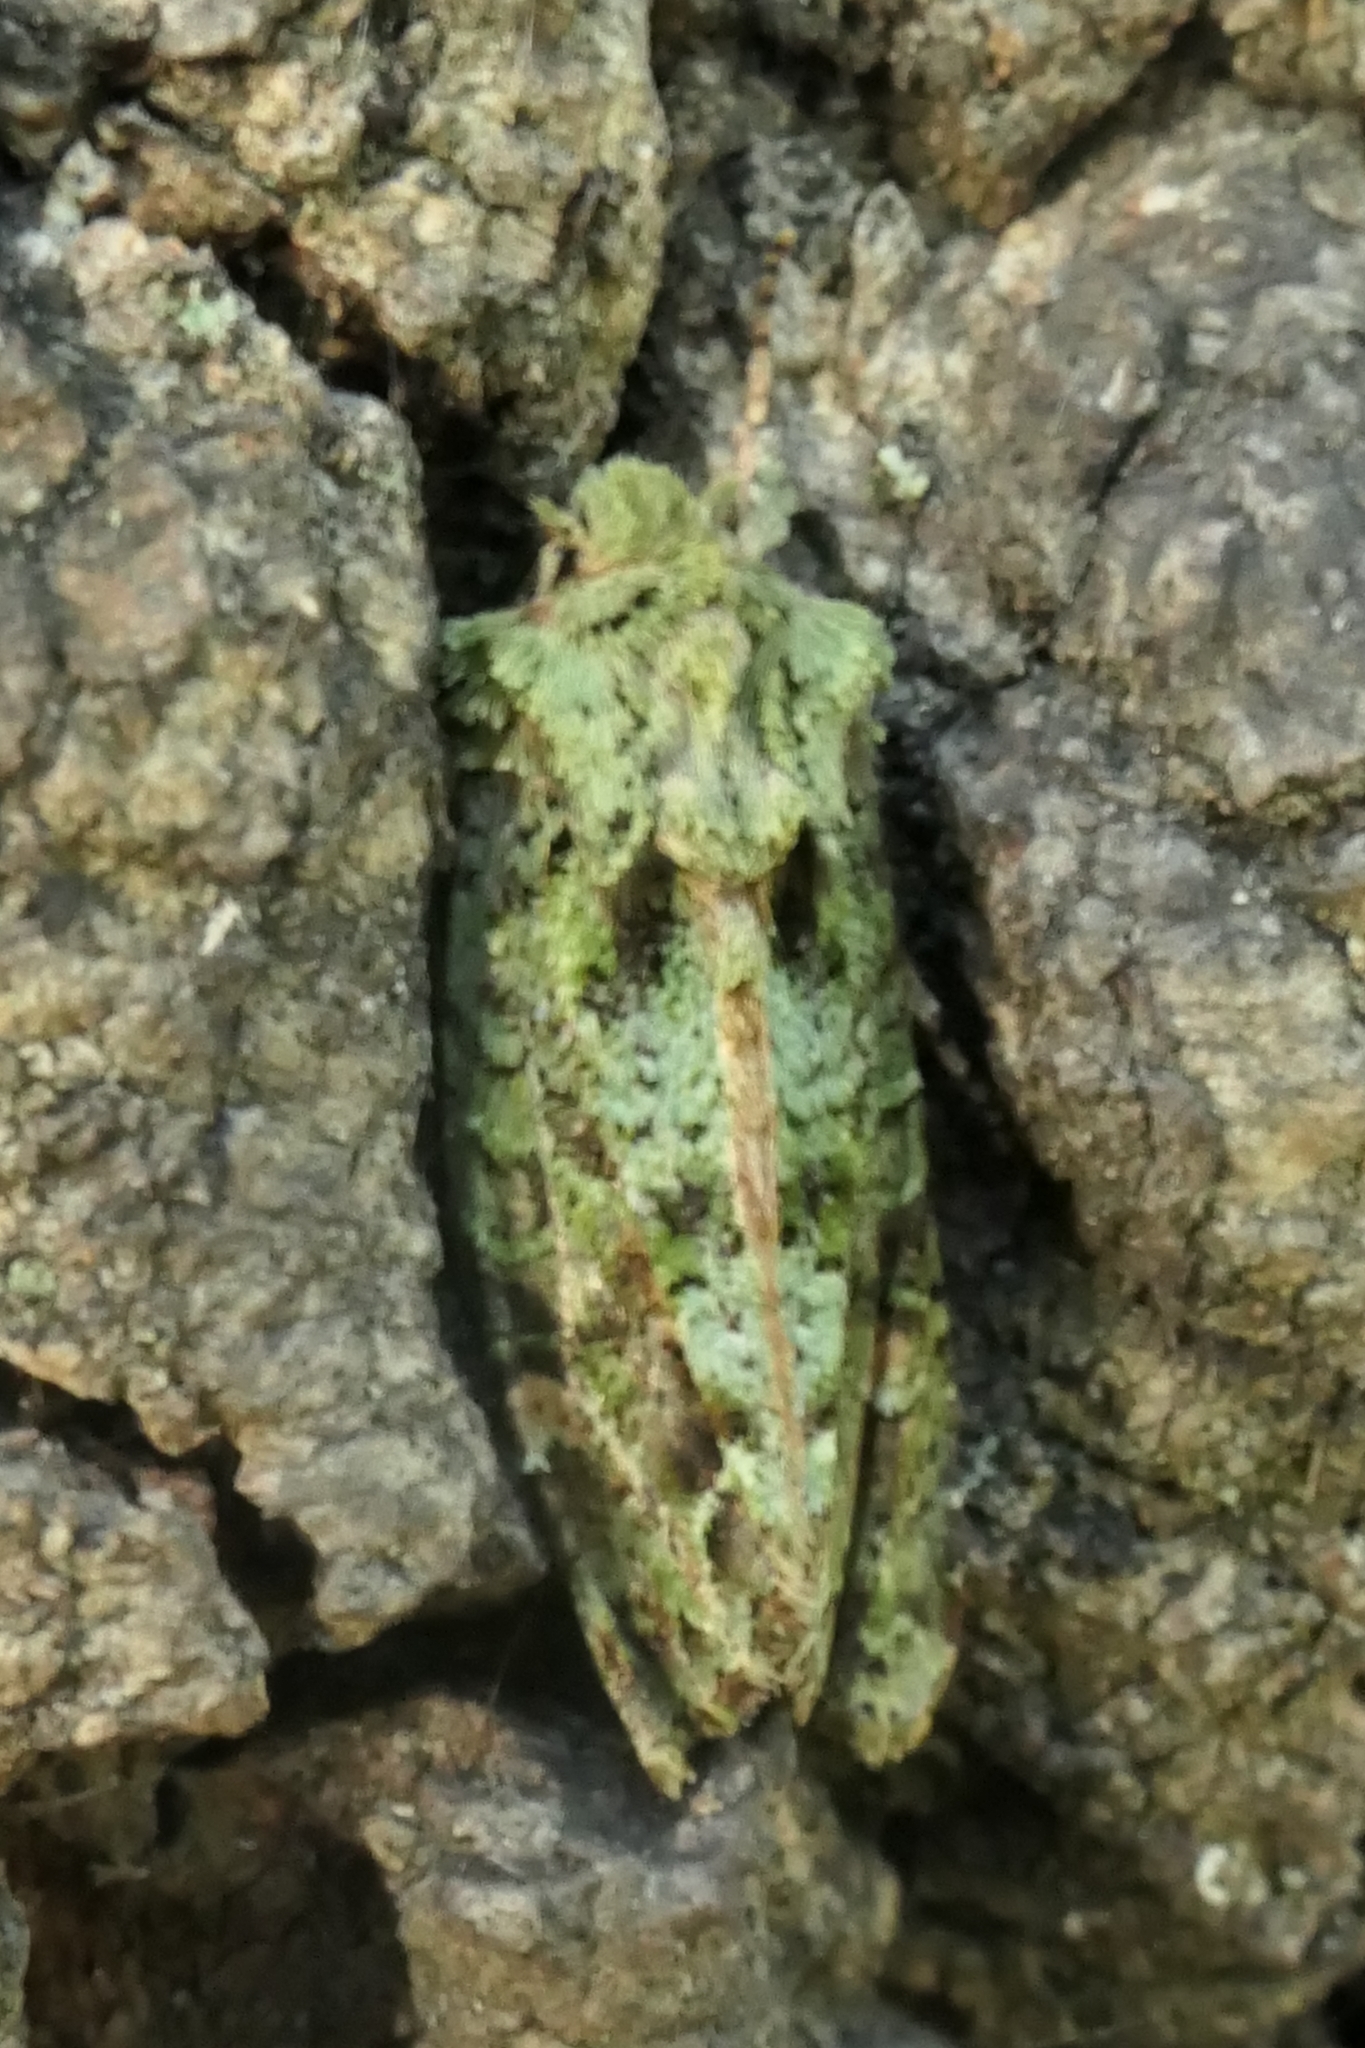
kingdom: Animalia
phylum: Arthropoda
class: Insecta
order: Lepidoptera
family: Noctuidae
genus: Ichneutica
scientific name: Ichneutica
